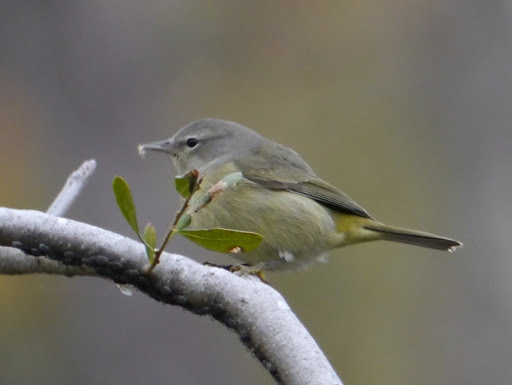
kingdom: Animalia
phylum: Chordata
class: Aves
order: Passeriformes
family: Parulidae
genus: Leiothlypis
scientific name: Leiothlypis celata
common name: Orange-crowned warbler
